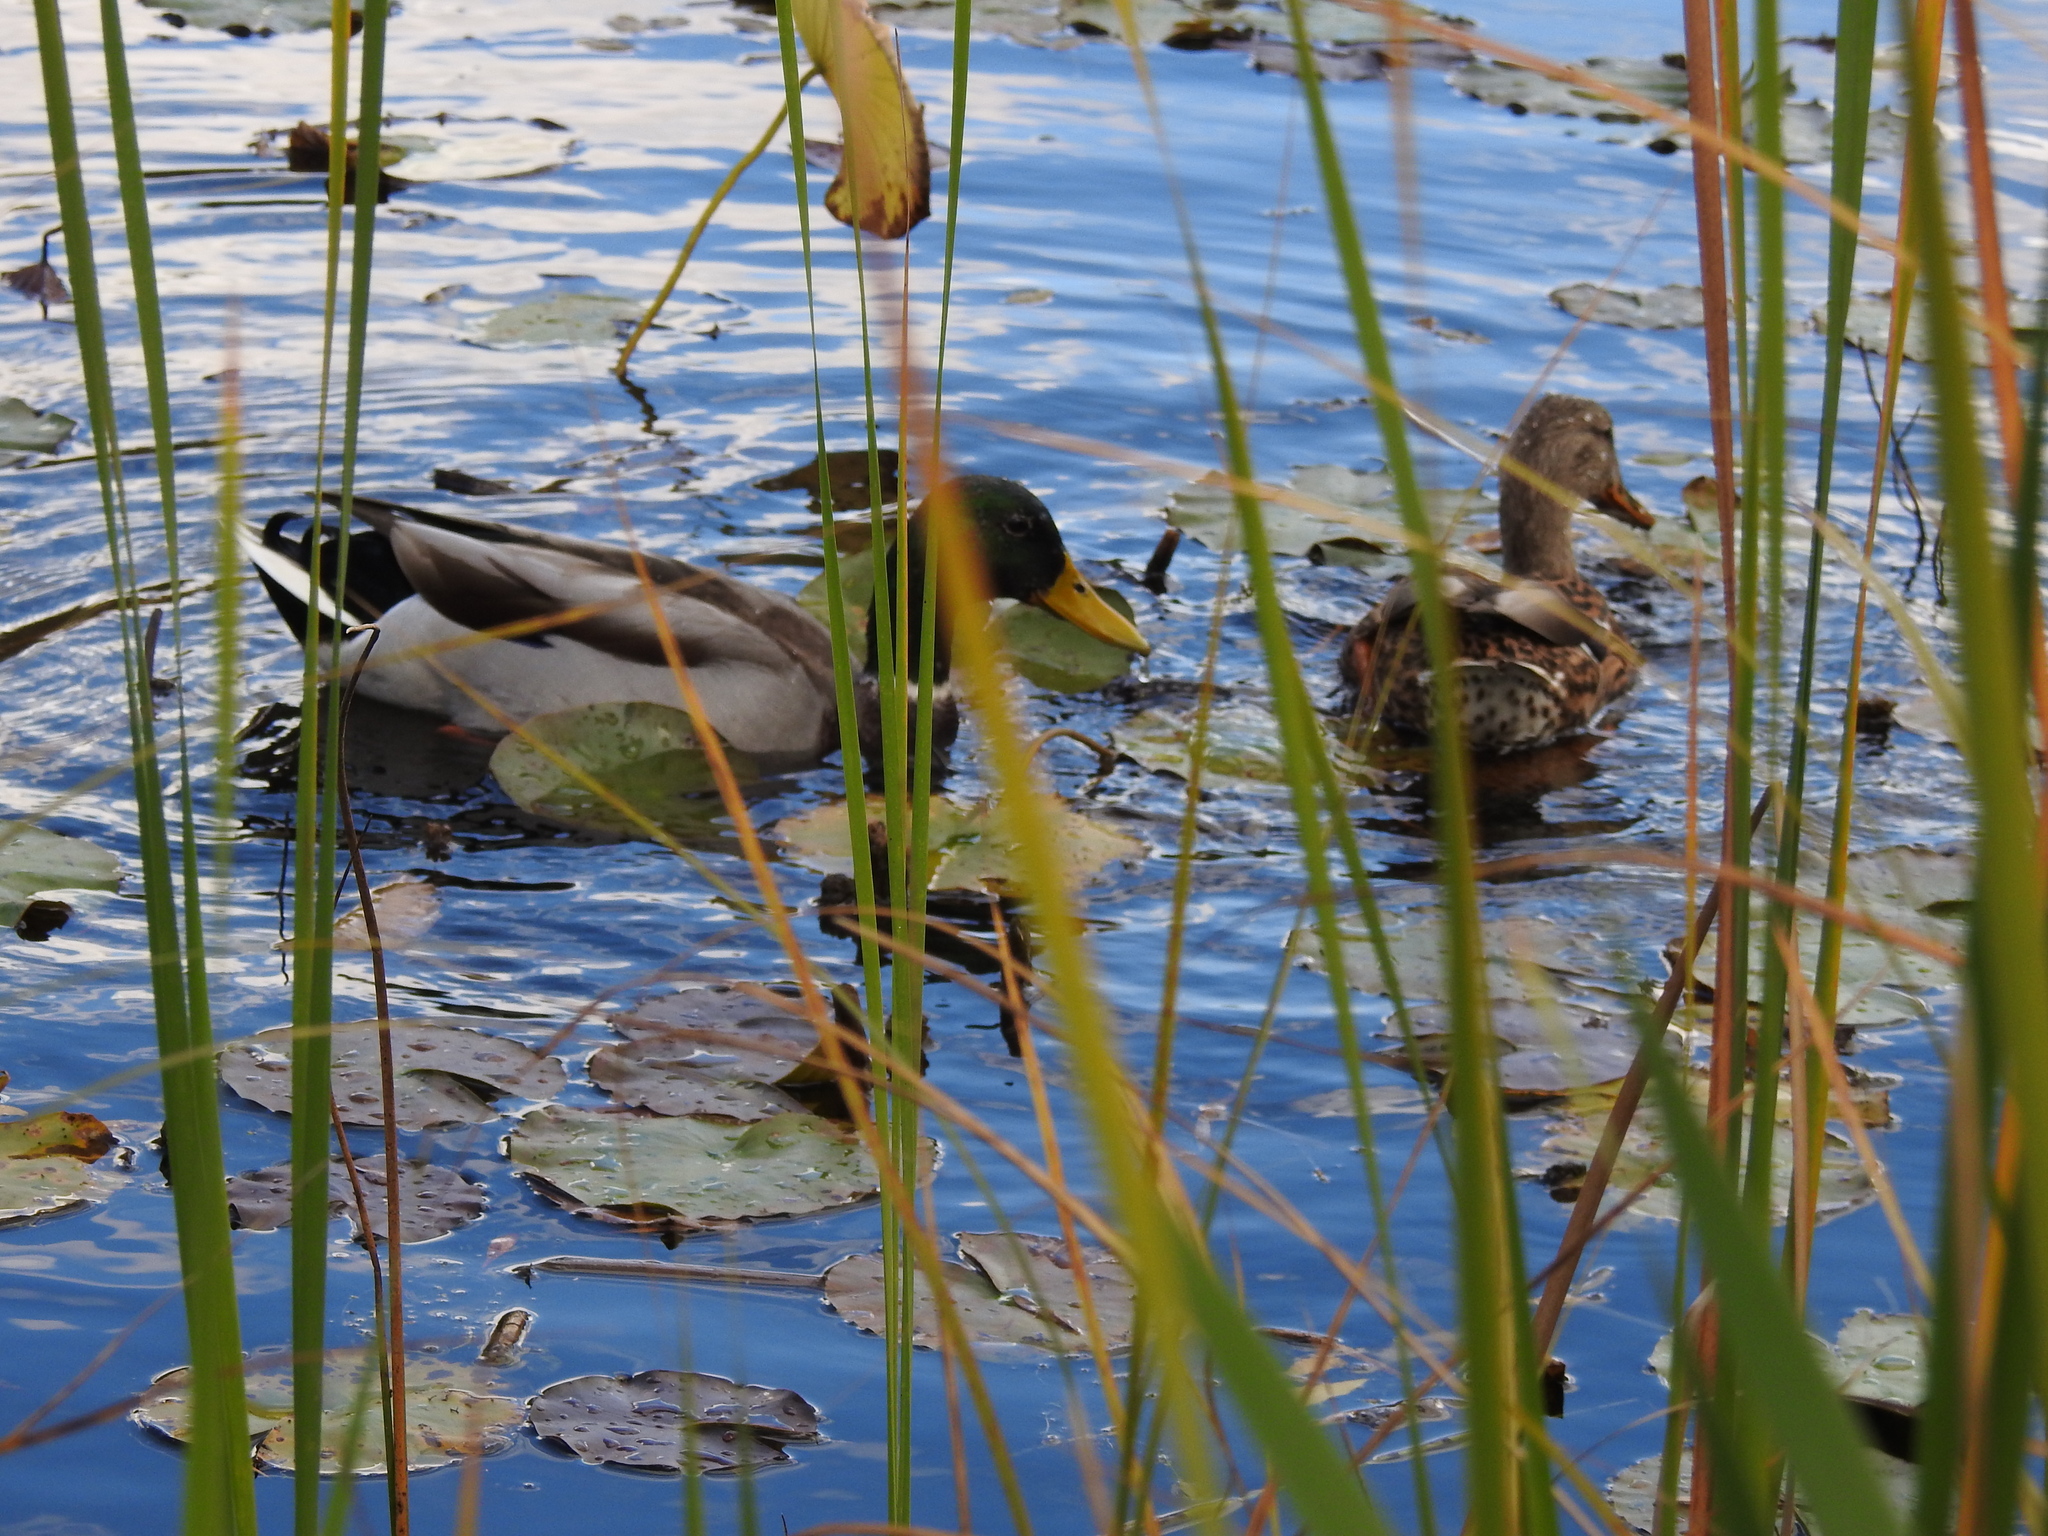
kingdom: Animalia
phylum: Chordata
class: Aves
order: Anseriformes
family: Anatidae
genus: Anas
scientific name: Anas platyrhynchos
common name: Mallard
